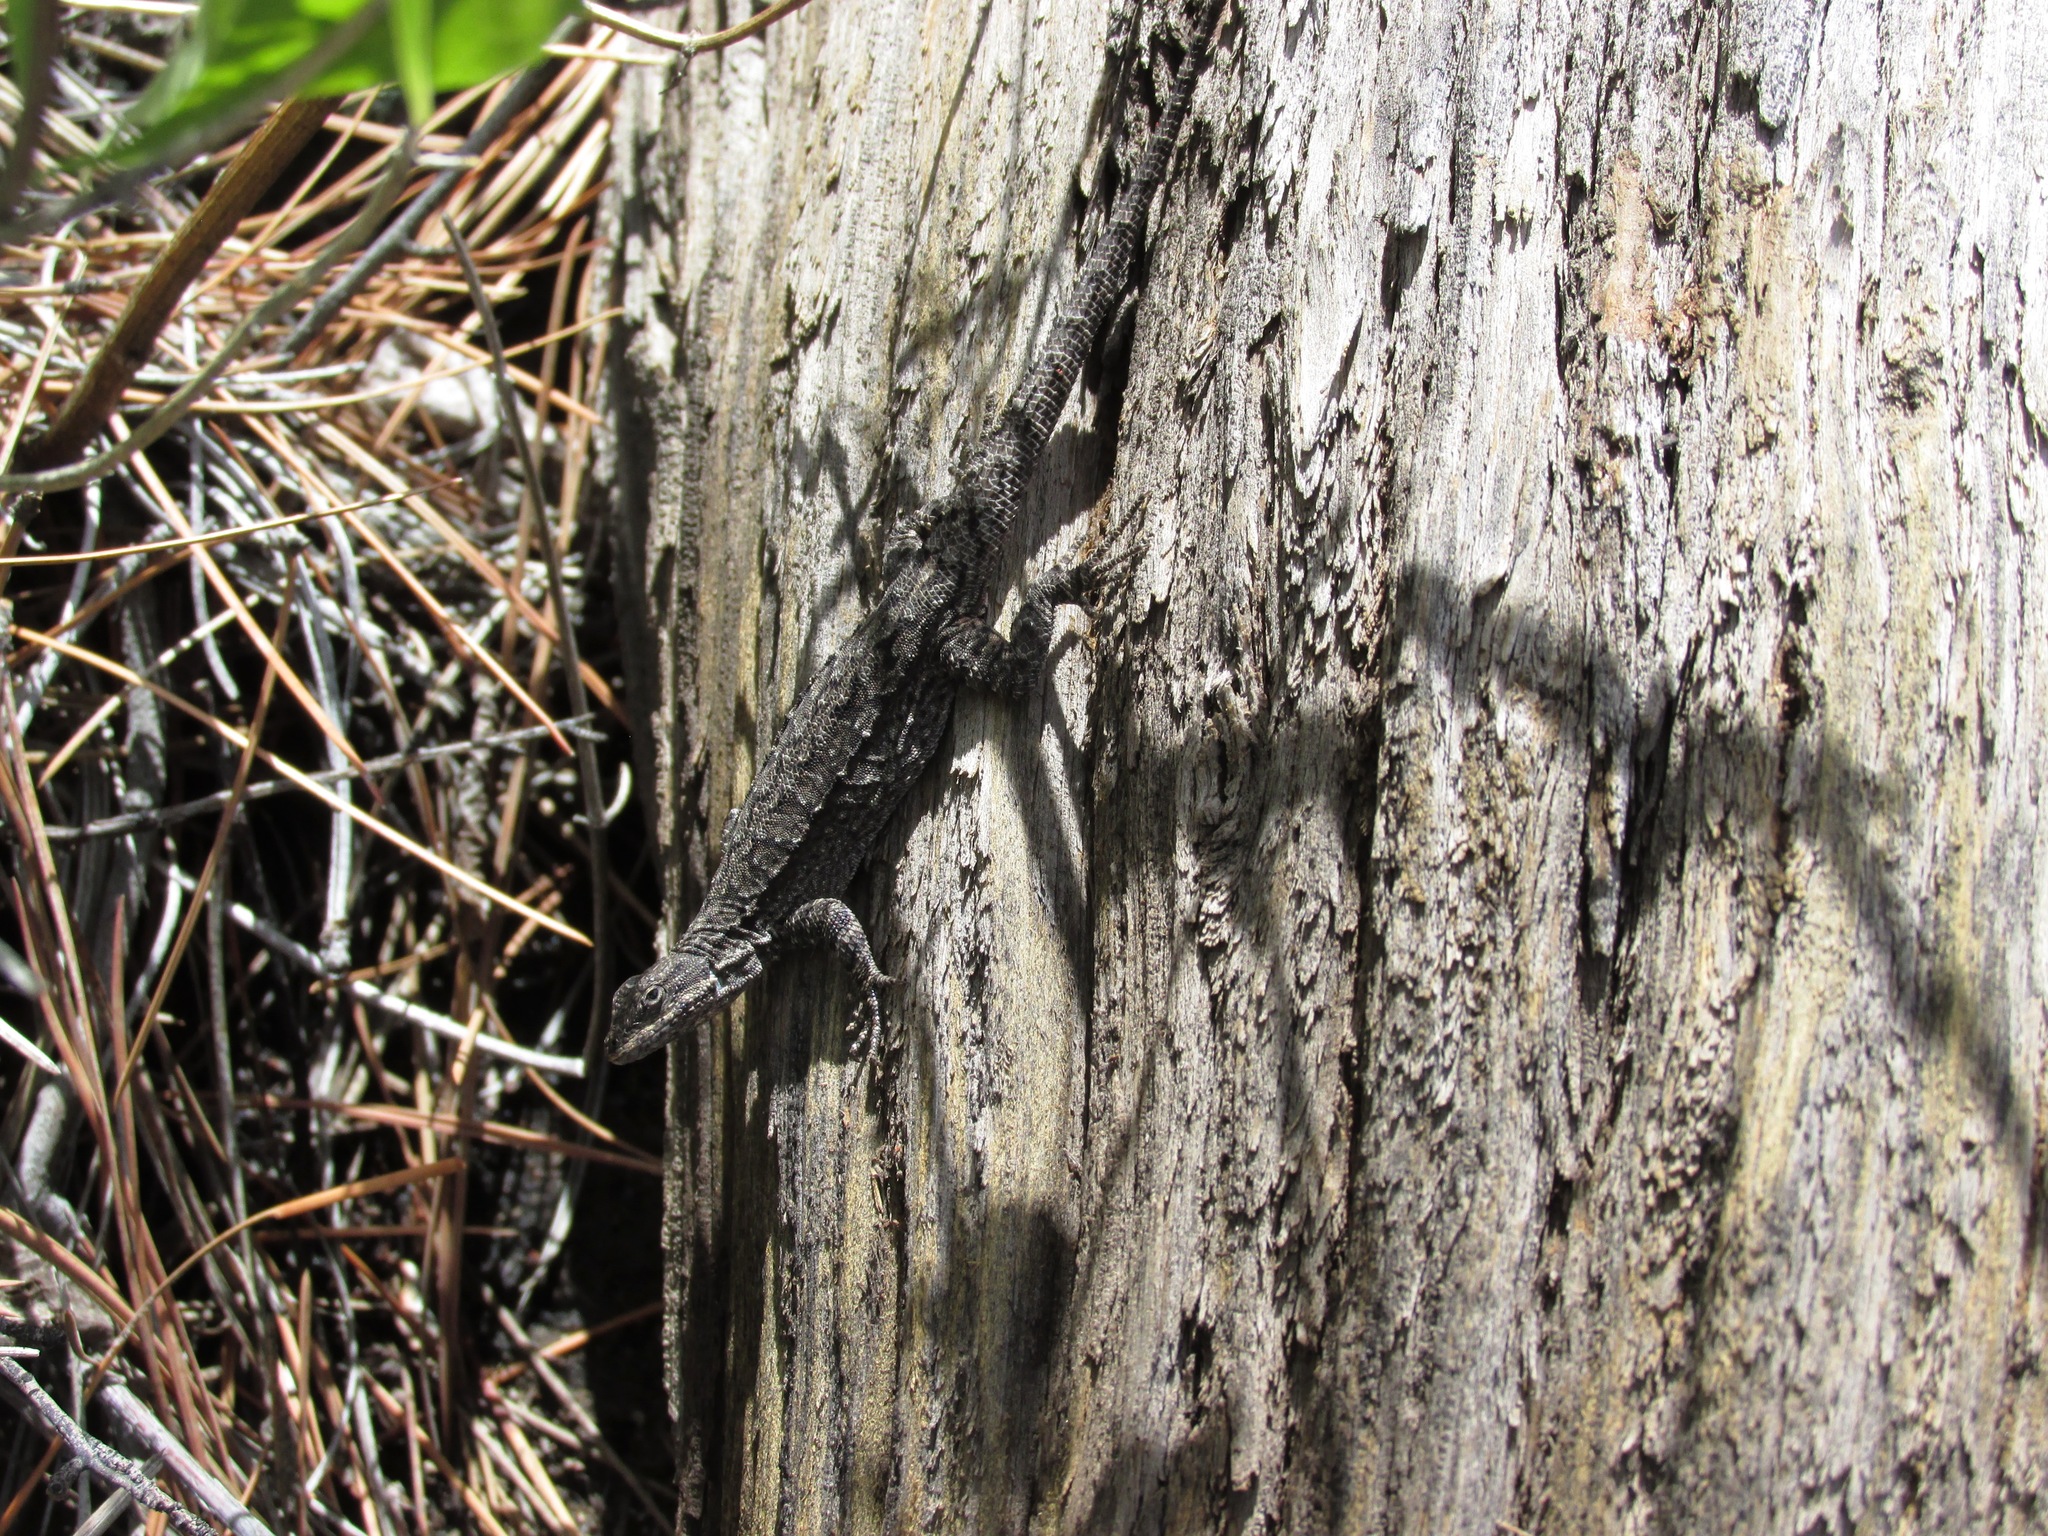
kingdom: Animalia
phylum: Chordata
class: Squamata
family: Phrynosomatidae
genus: Urosaurus
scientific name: Urosaurus ornatus
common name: Ornate tree lizard
